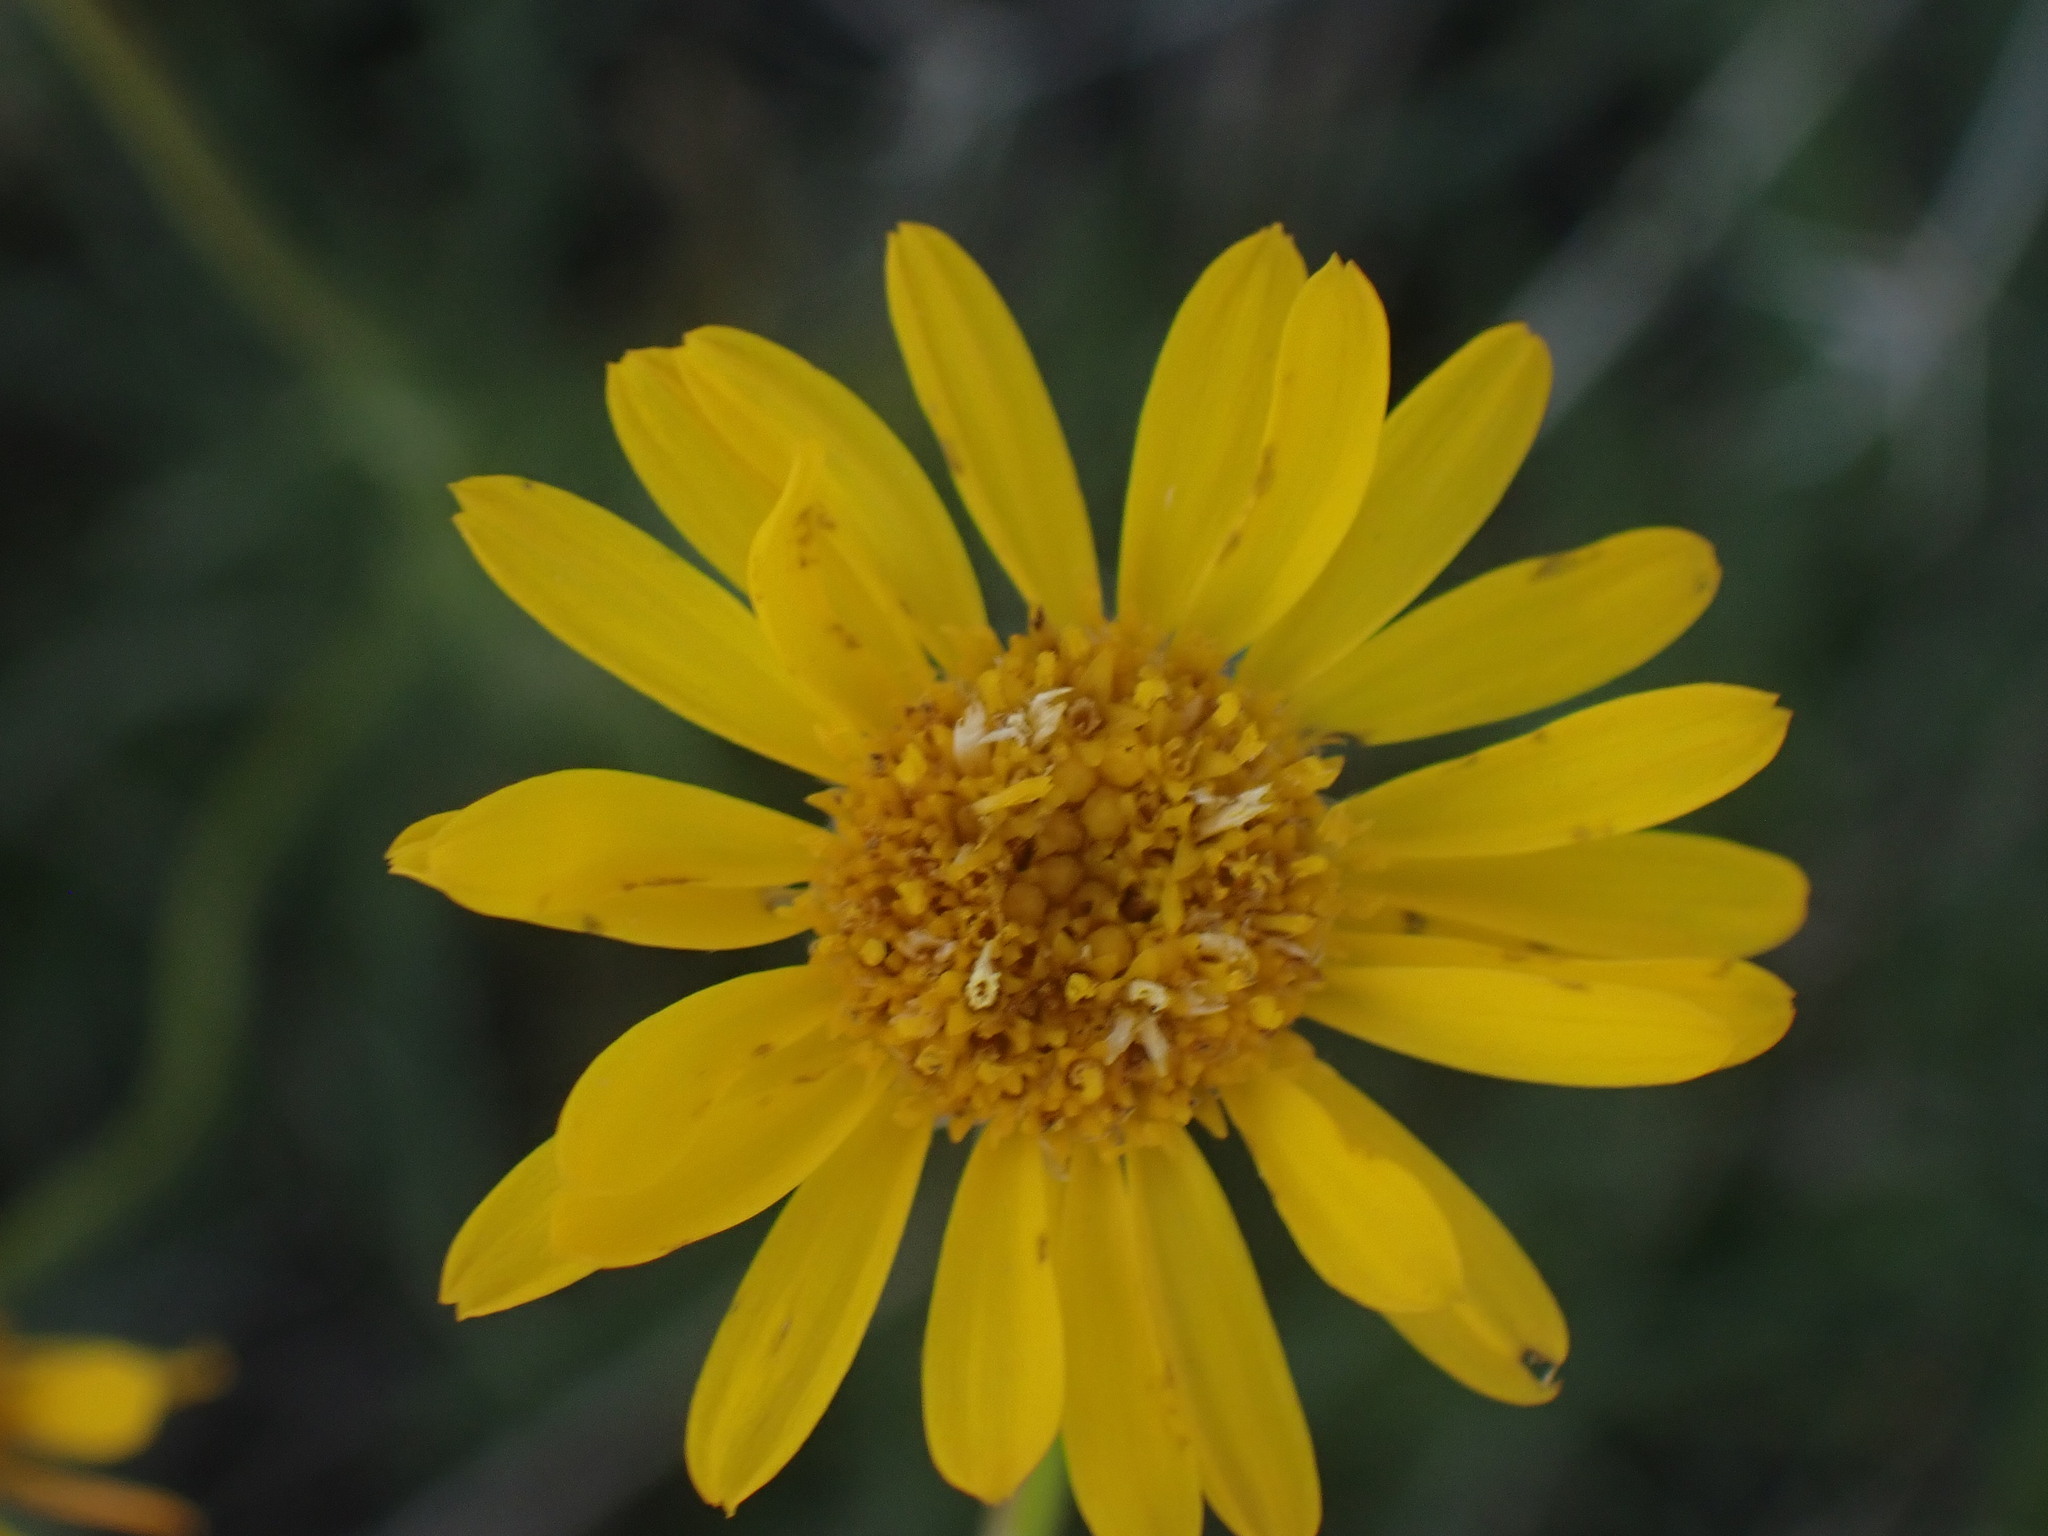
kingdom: Plantae
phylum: Tracheophyta
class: Magnoliopsida
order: Asterales
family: Asteraceae
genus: Erigeron
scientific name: Erigeron linearis
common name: Desert yellow fleabane
